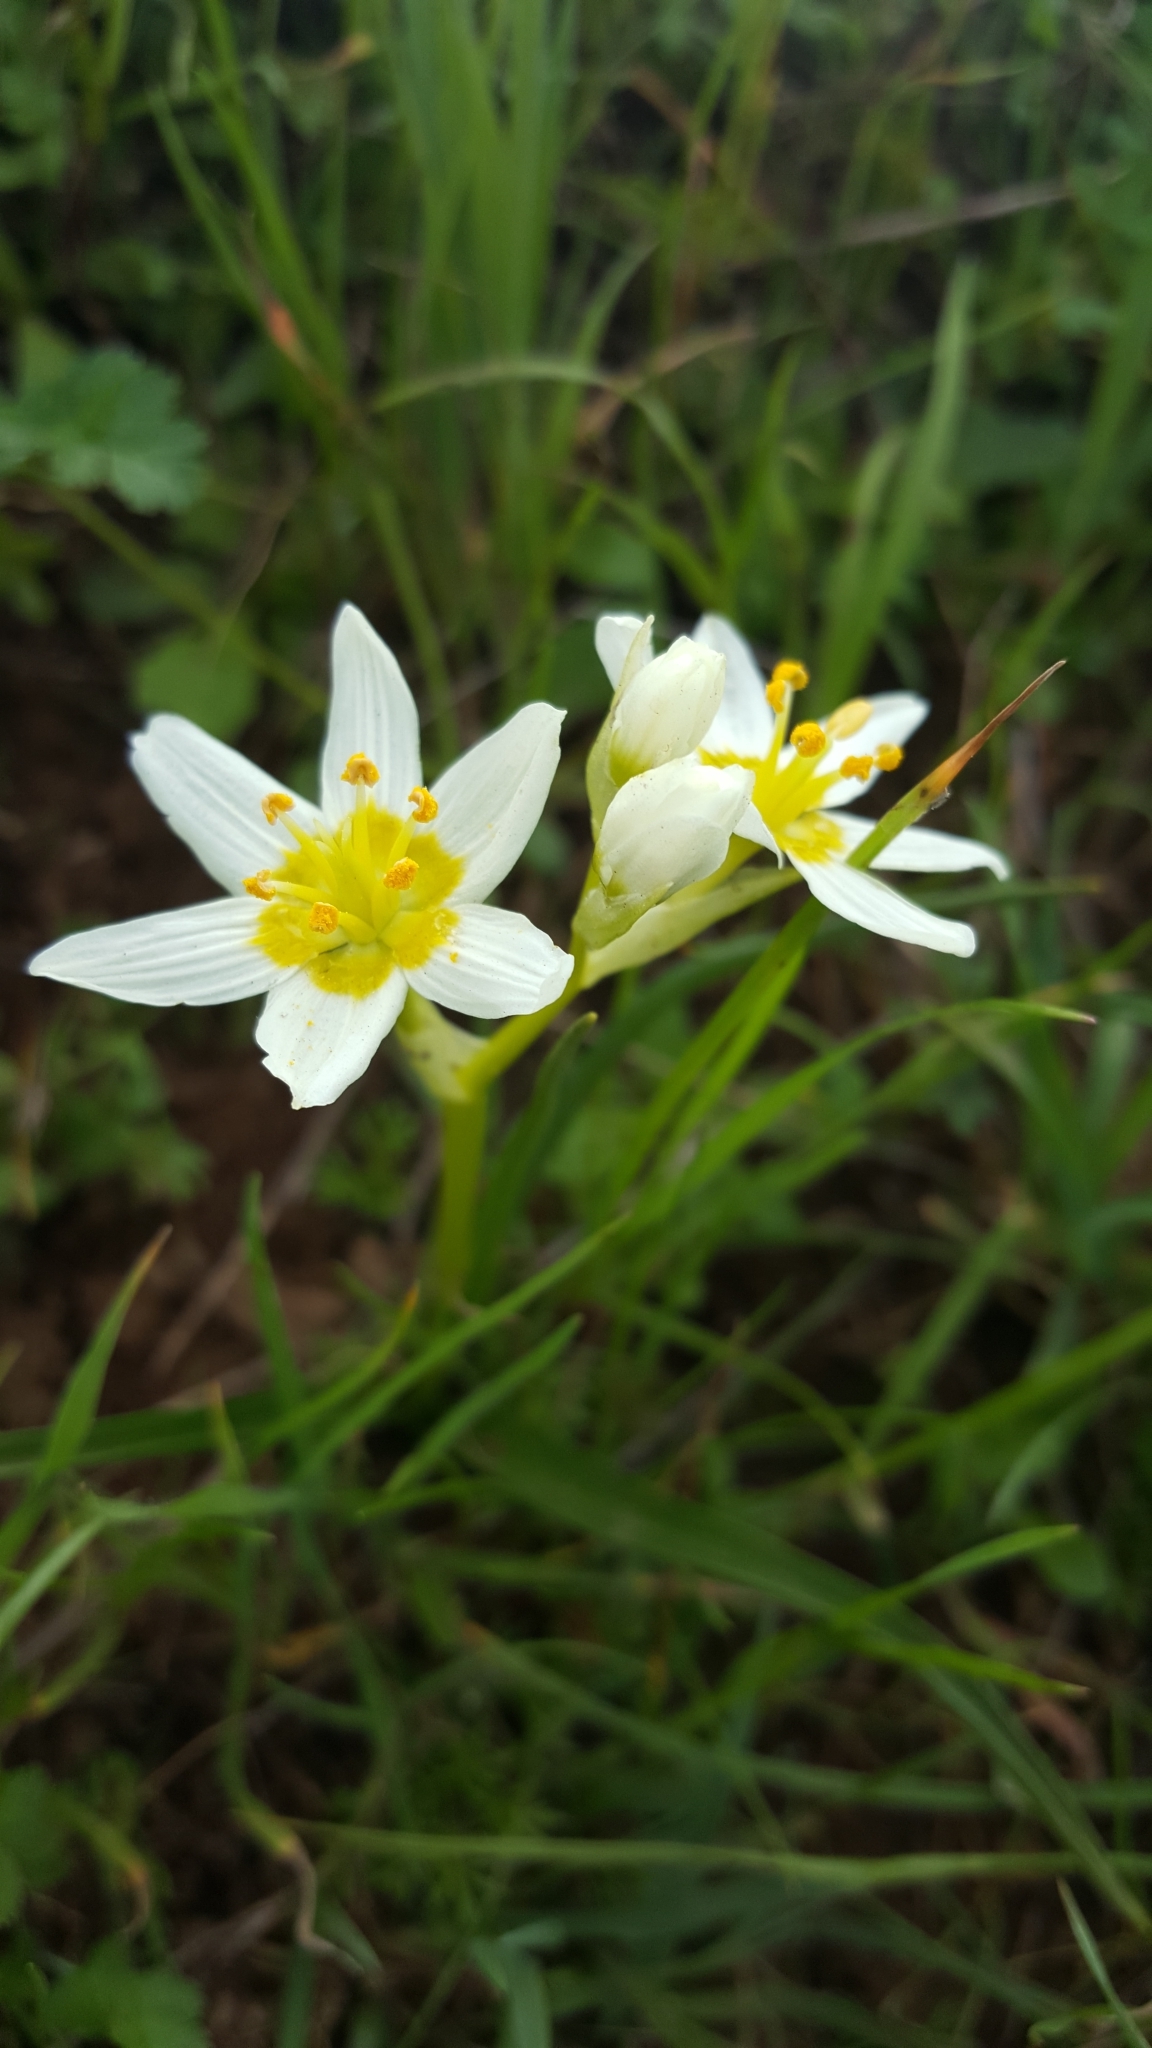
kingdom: Plantae
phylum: Tracheophyta
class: Liliopsida
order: Liliales
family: Melanthiaceae
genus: Toxicoscordion
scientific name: Toxicoscordion fremontii
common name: Fremont's death camas
